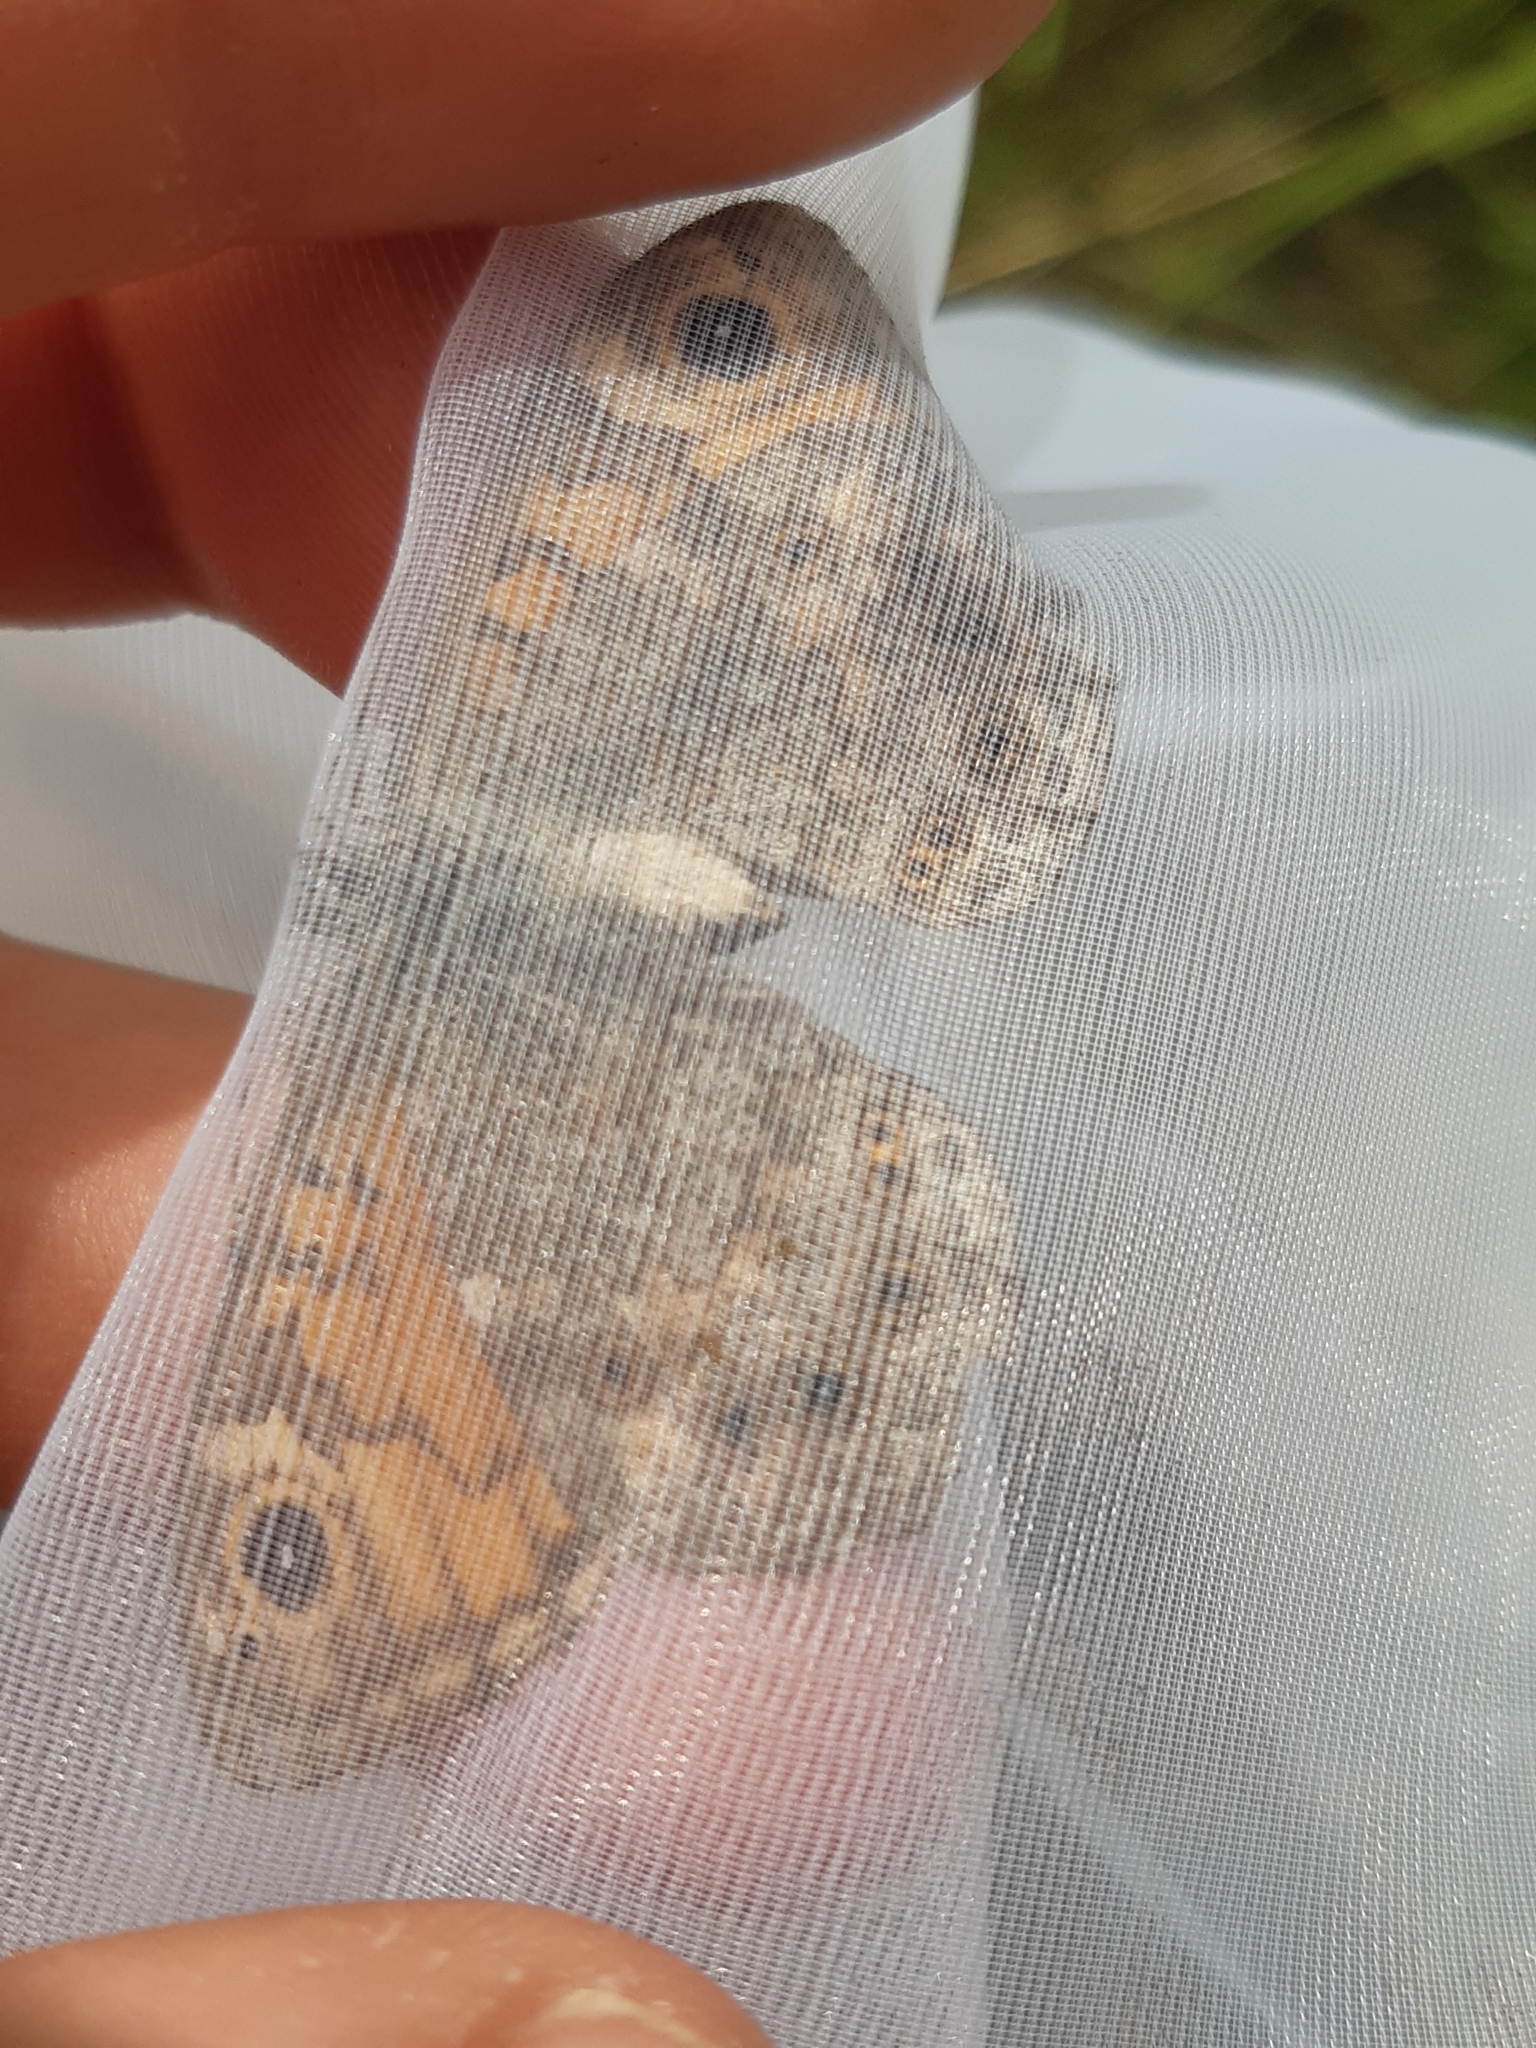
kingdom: Animalia
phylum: Arthropoda
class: Insecta
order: Lepidoptera
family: Nymphalidae
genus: Pararge
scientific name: Pararge Lasiommata megera
